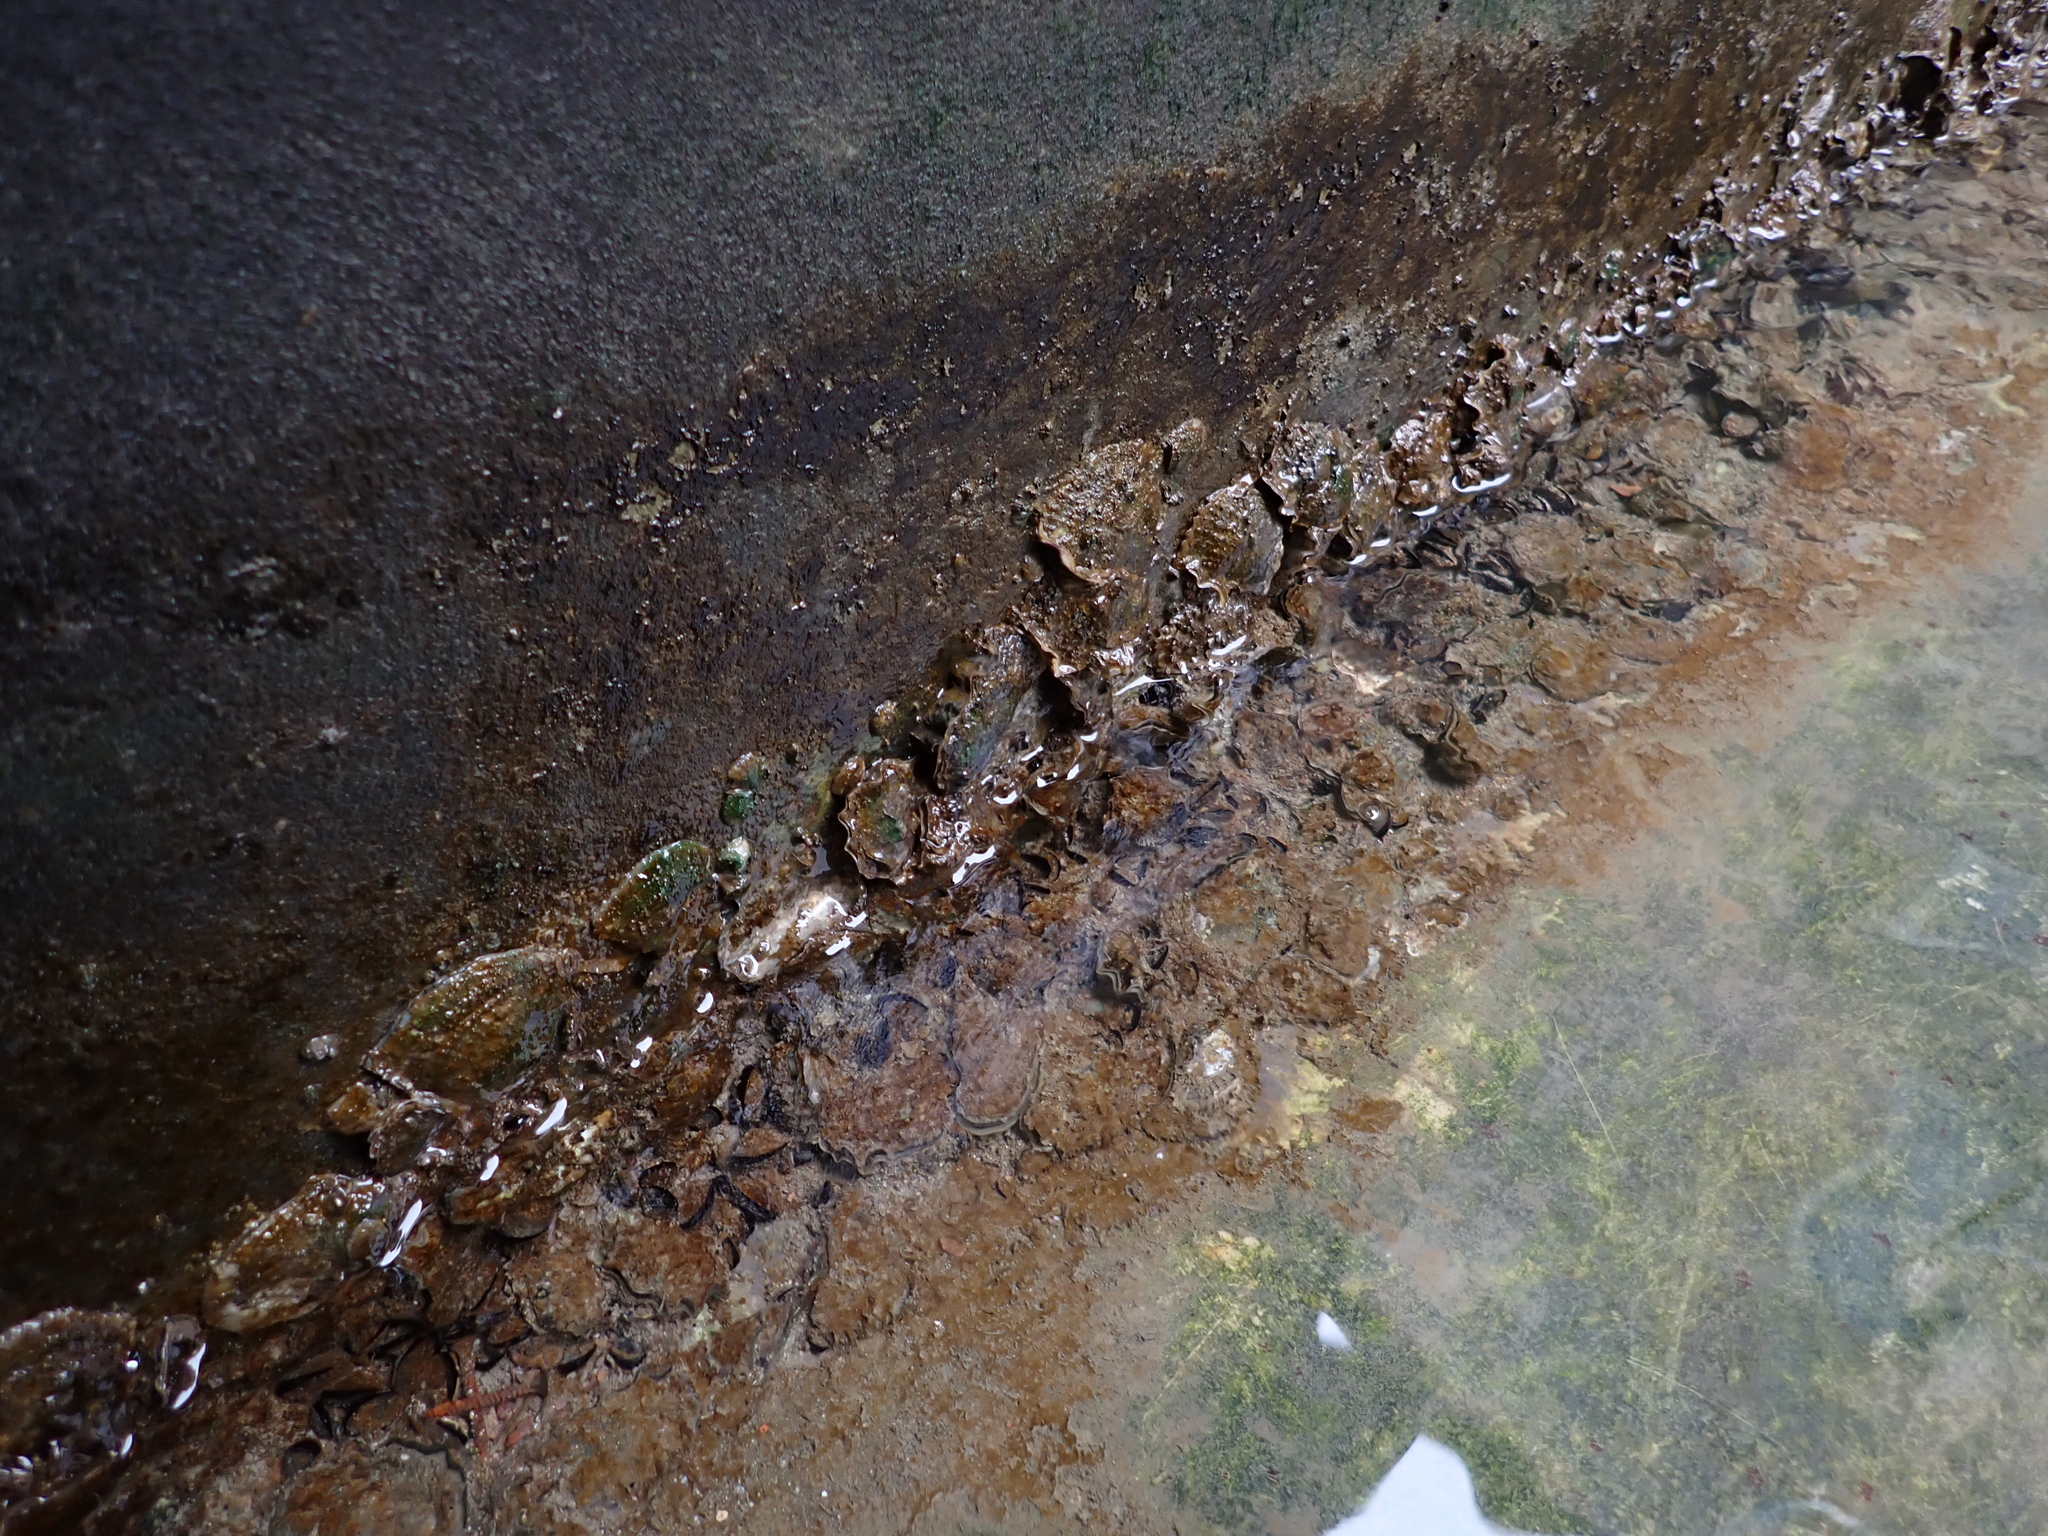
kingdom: Animalia
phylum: Mollusca
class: Bivalvia
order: Ostreida
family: Ostreidae
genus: Magallana
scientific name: Magallana gigas
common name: Pacific oyster
